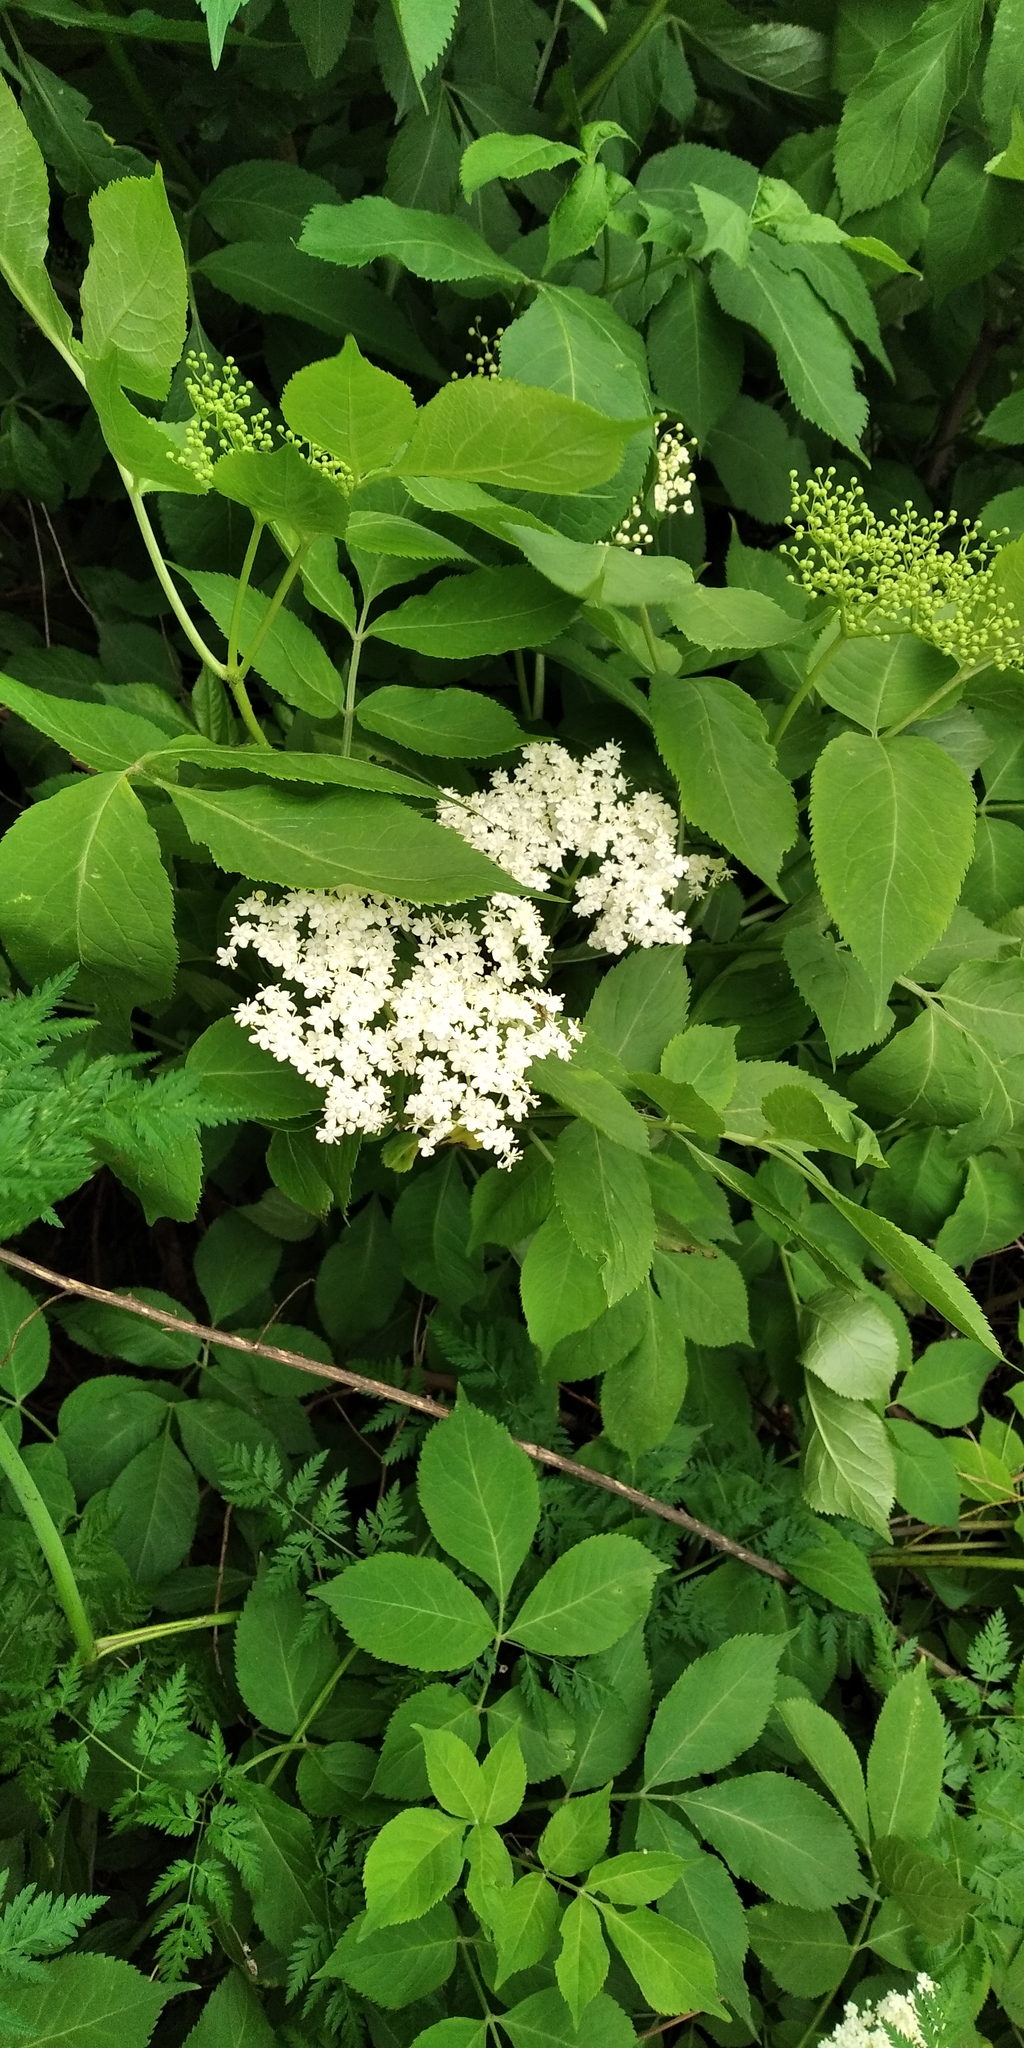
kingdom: Plantae
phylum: Tracheophyta
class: Magnoliopsida
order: Dipsacales
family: Viburnaceae
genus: Sambucus
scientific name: Sambucus nigra
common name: Elder
